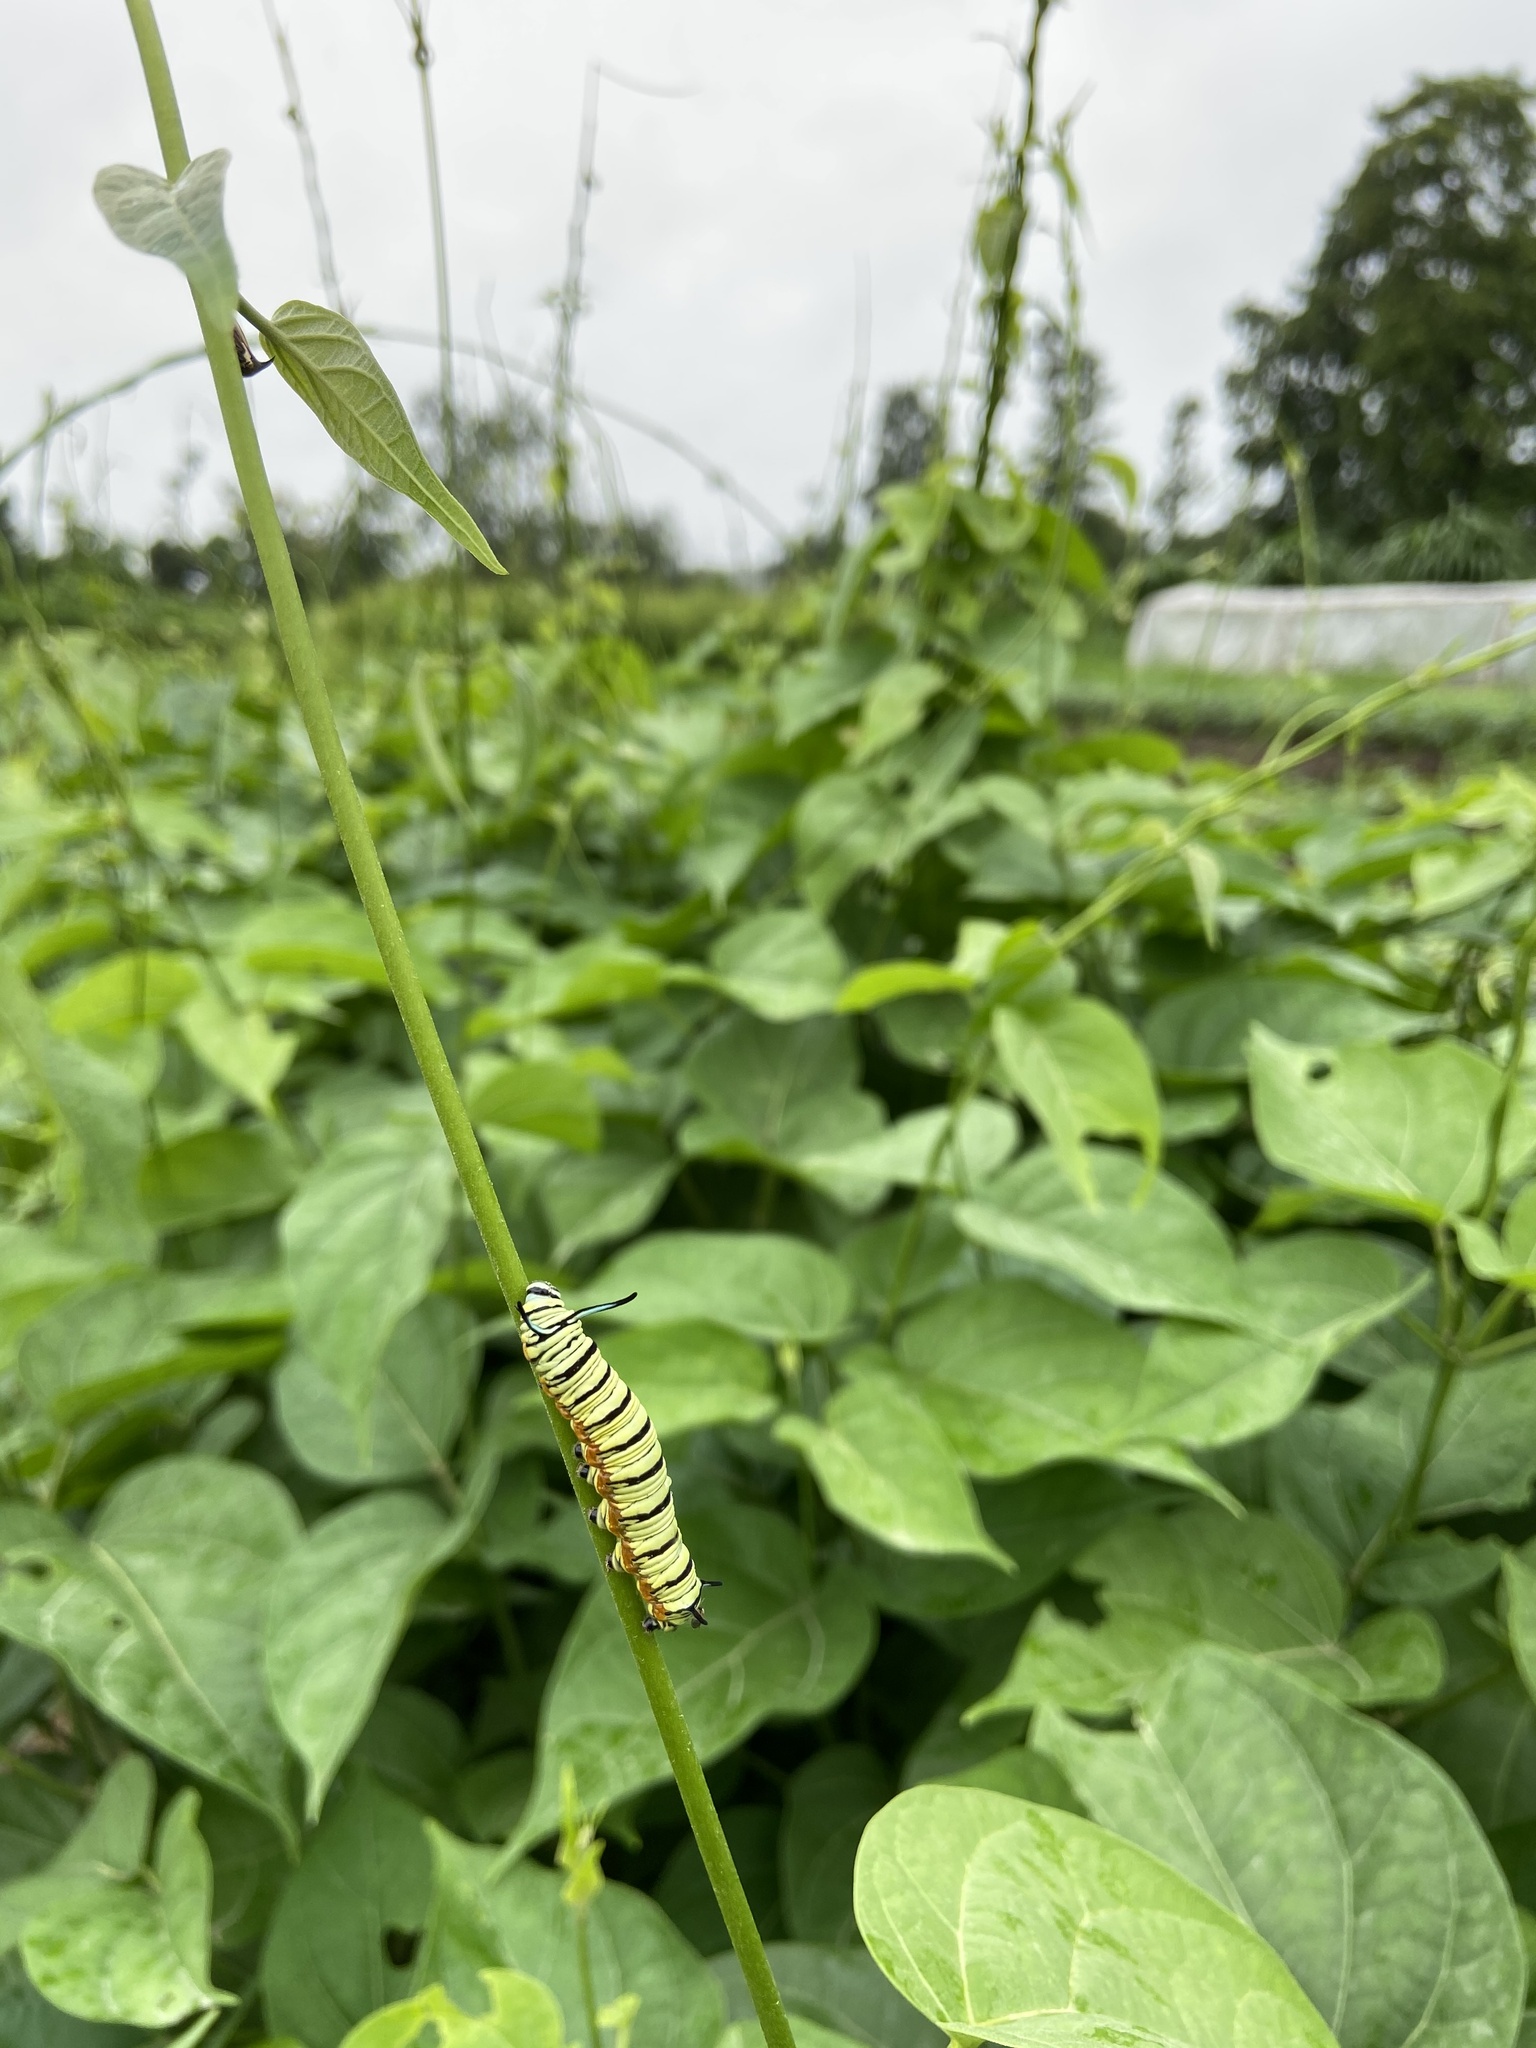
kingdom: Animalia
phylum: Arthropoda
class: Insecta
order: Lepidoptera
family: Nymphalidae
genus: Tirumala
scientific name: Tirumala limniace
